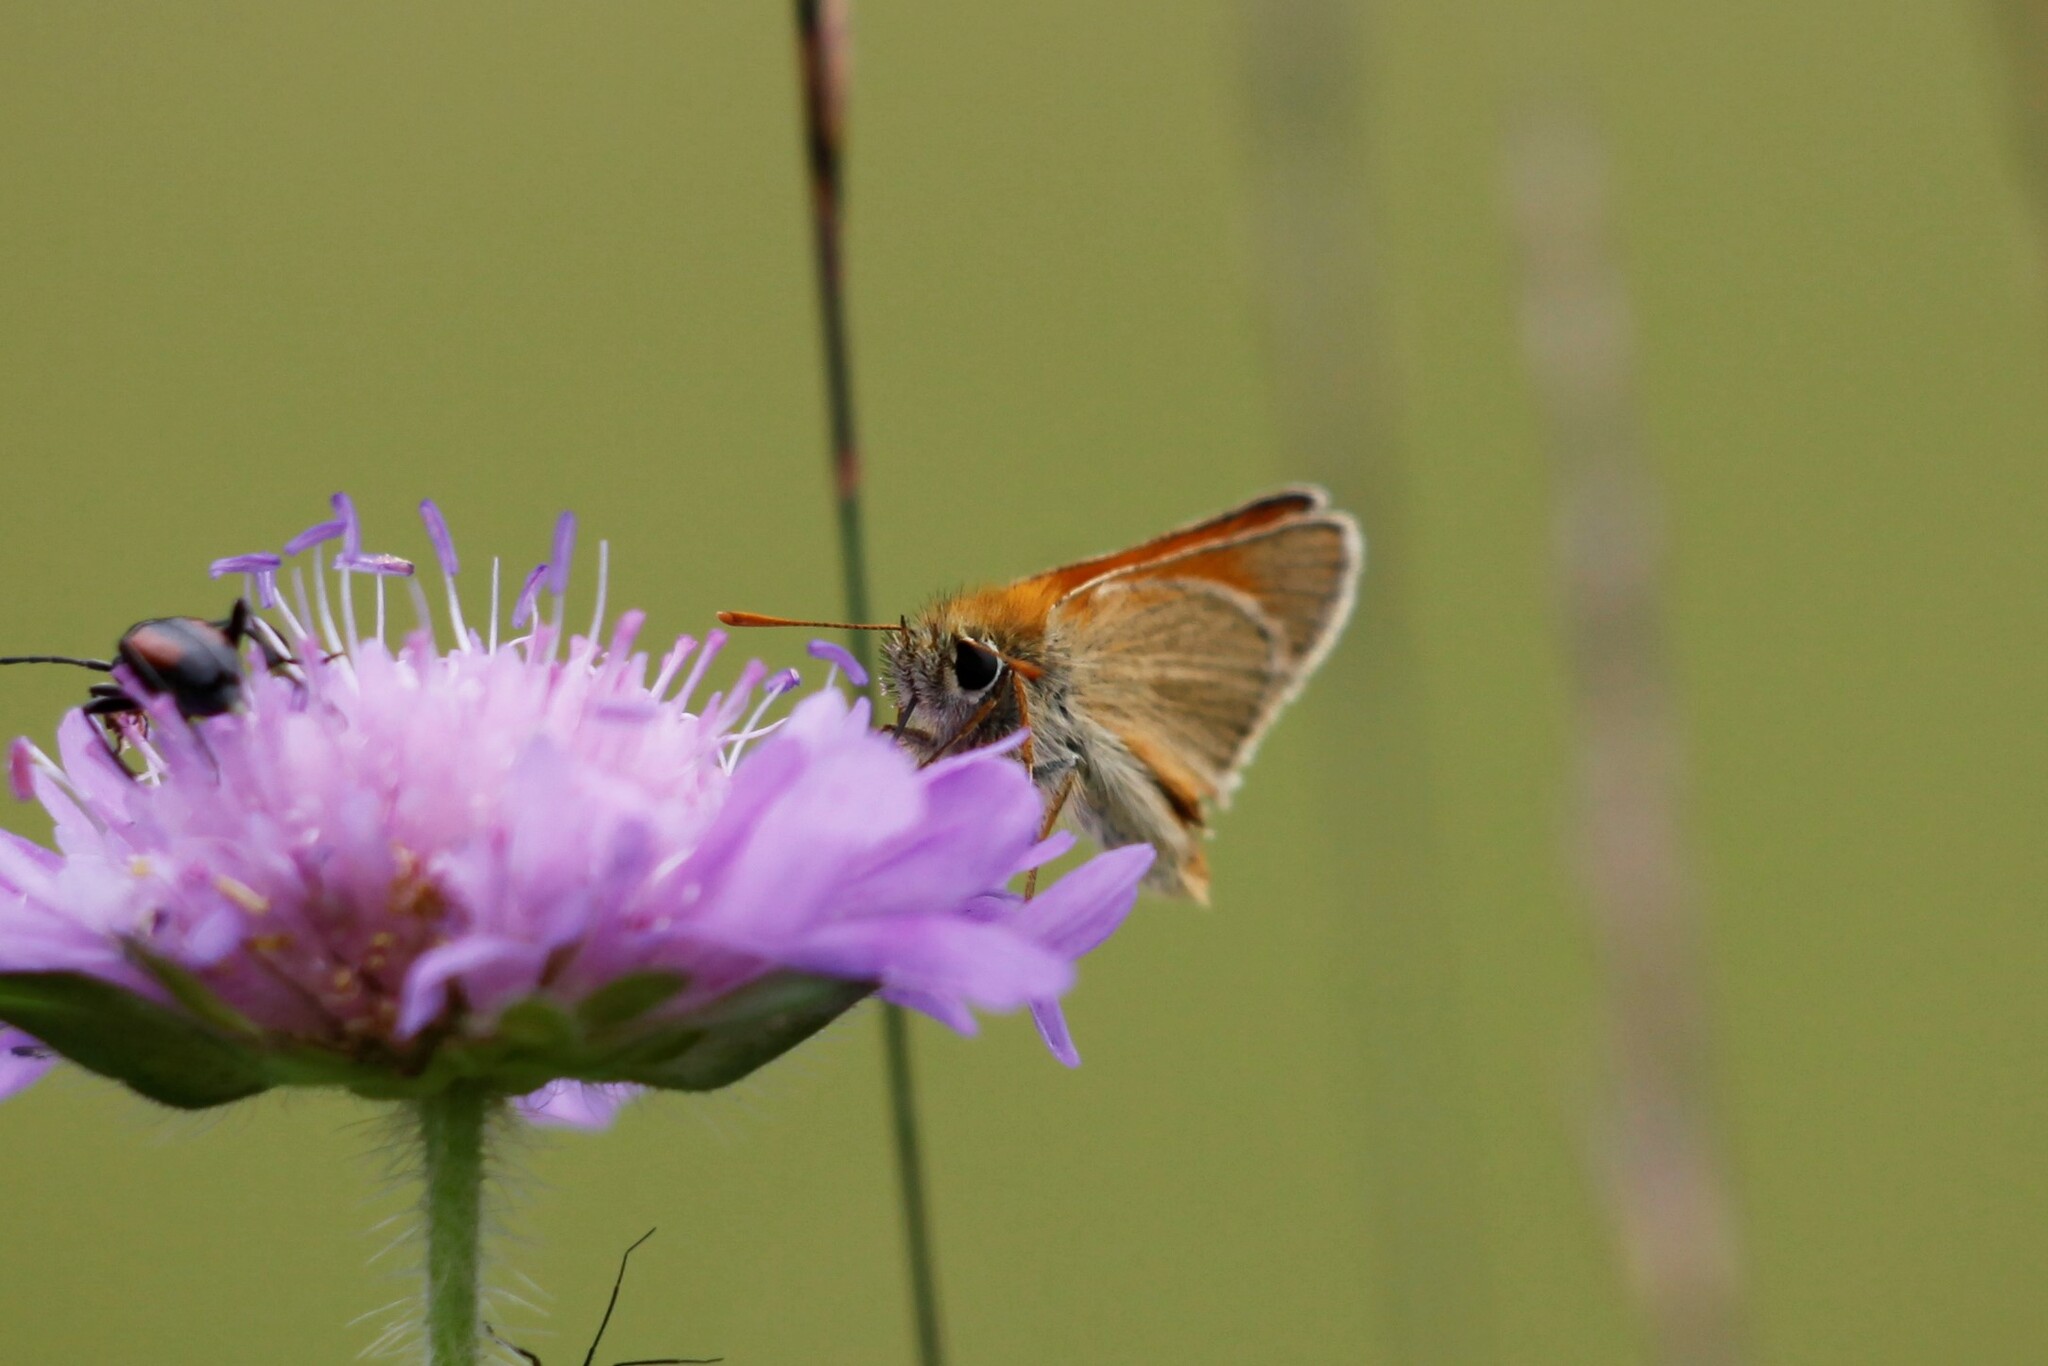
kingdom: Animalia
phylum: Arthropoda
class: Insecta
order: Lepidoptera
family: Hesperiidae
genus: Thymelicus
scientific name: Thymelicus sylvestris
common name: Small skipper
